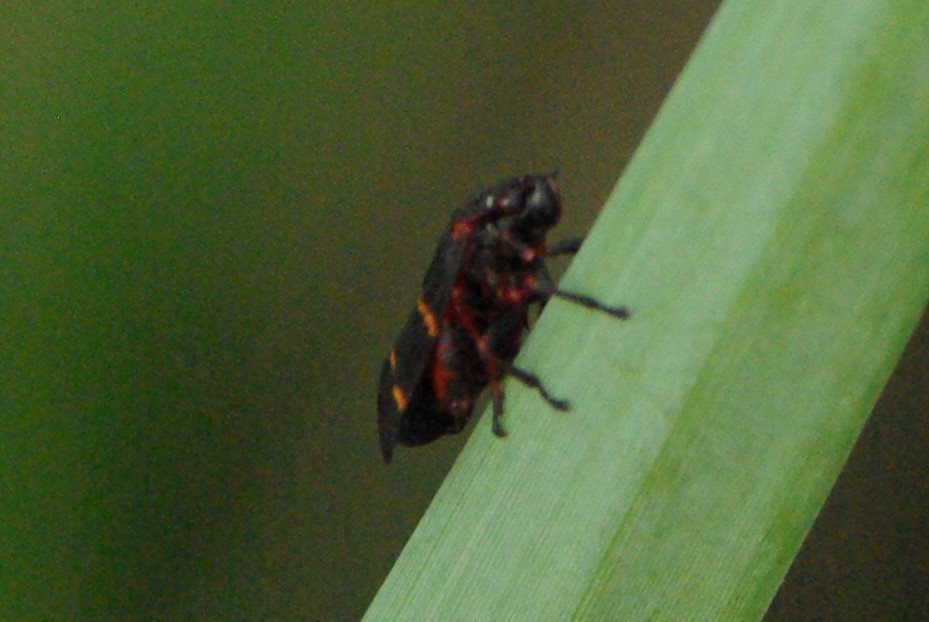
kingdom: Animalia
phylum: Arthropoda
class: Insecta
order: Hemiptera
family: Cercopidae
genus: Prosapia
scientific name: Prosapia bicincta
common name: Twolined spittlebug
